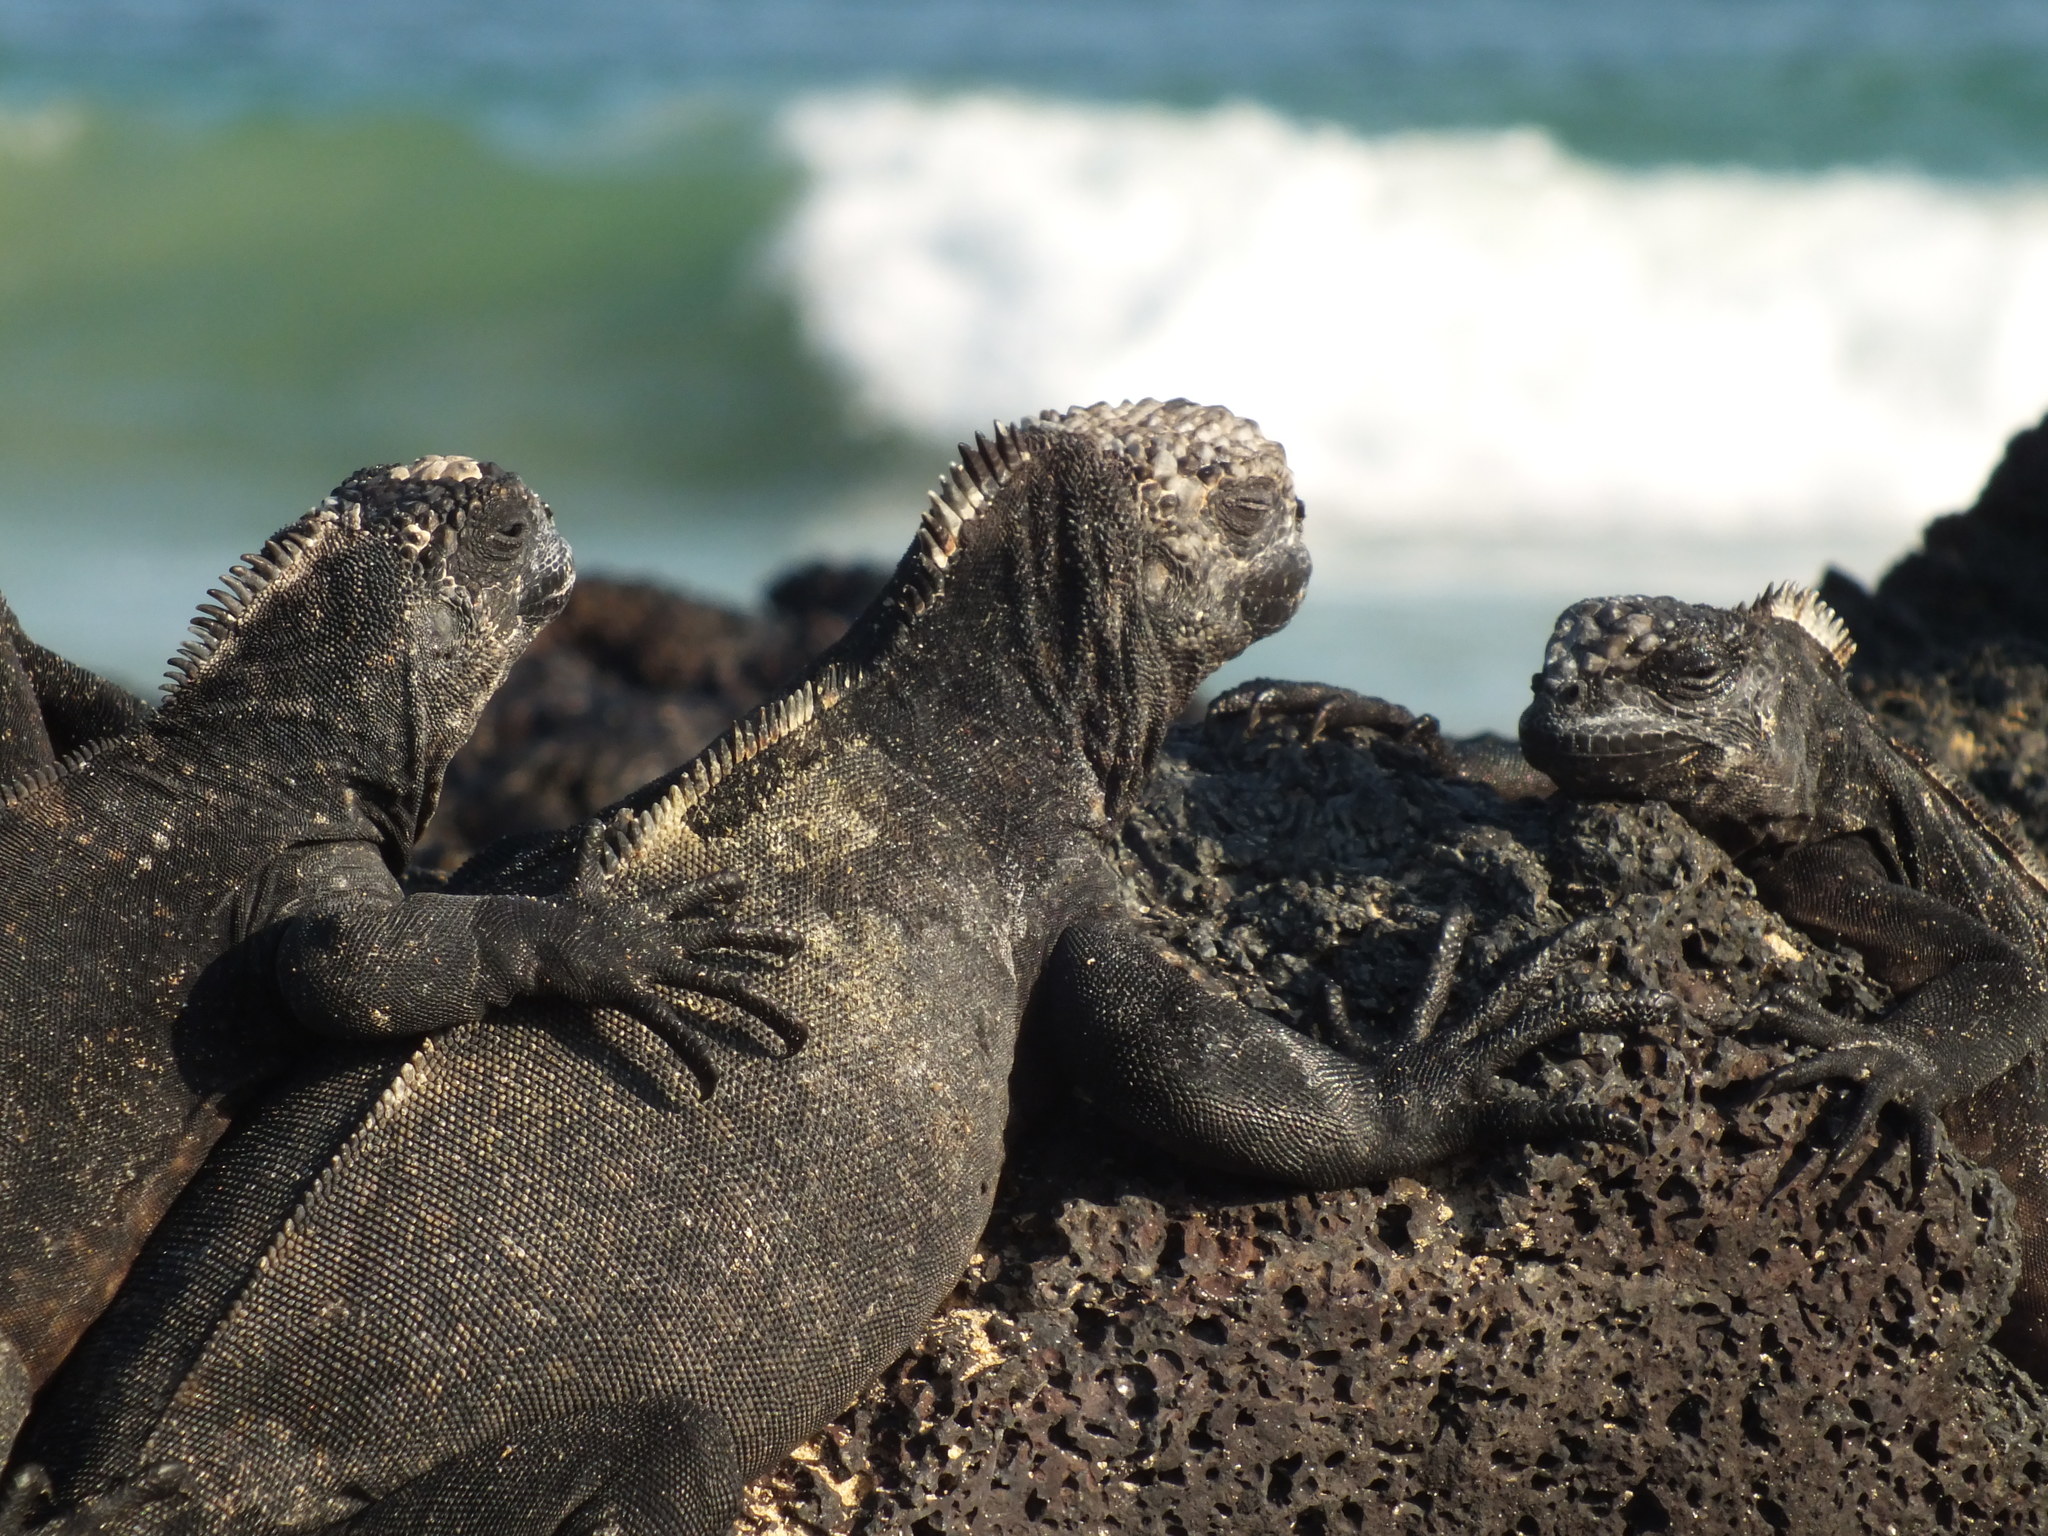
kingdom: Animalia
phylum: Chordata
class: Squamata
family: Iguanidae
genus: Amblyrhynchus
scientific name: Amblyrhynchus cristatus
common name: Marine iguana
